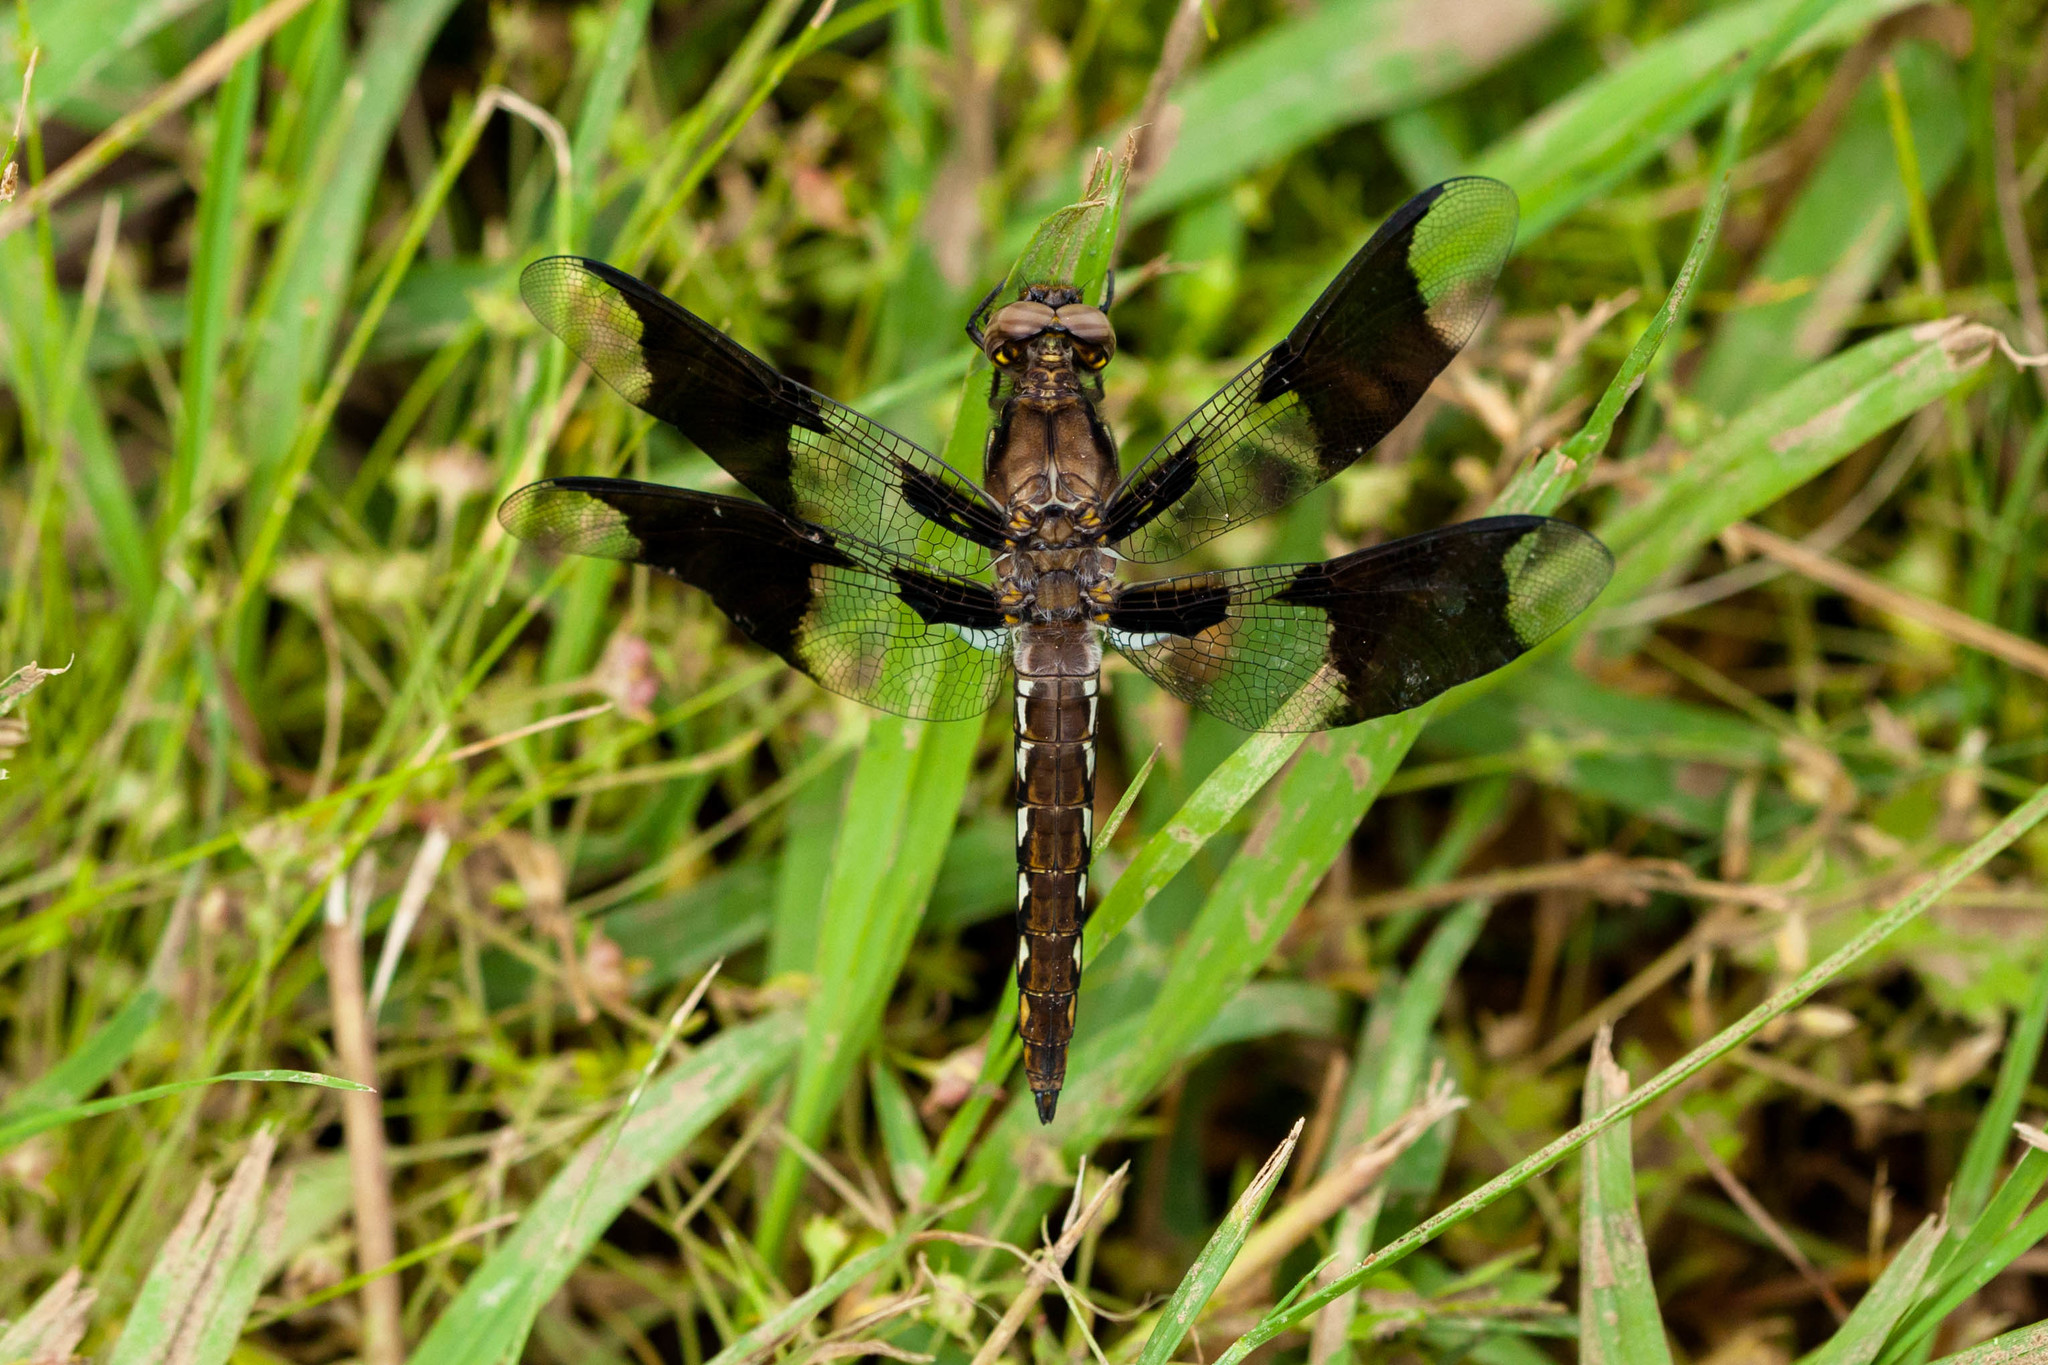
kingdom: Animalia
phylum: Arthropoda
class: Insecta
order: Odonata
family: Libellulidae
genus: Plathemis
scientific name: Plathemis lydia
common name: Common whitetail
